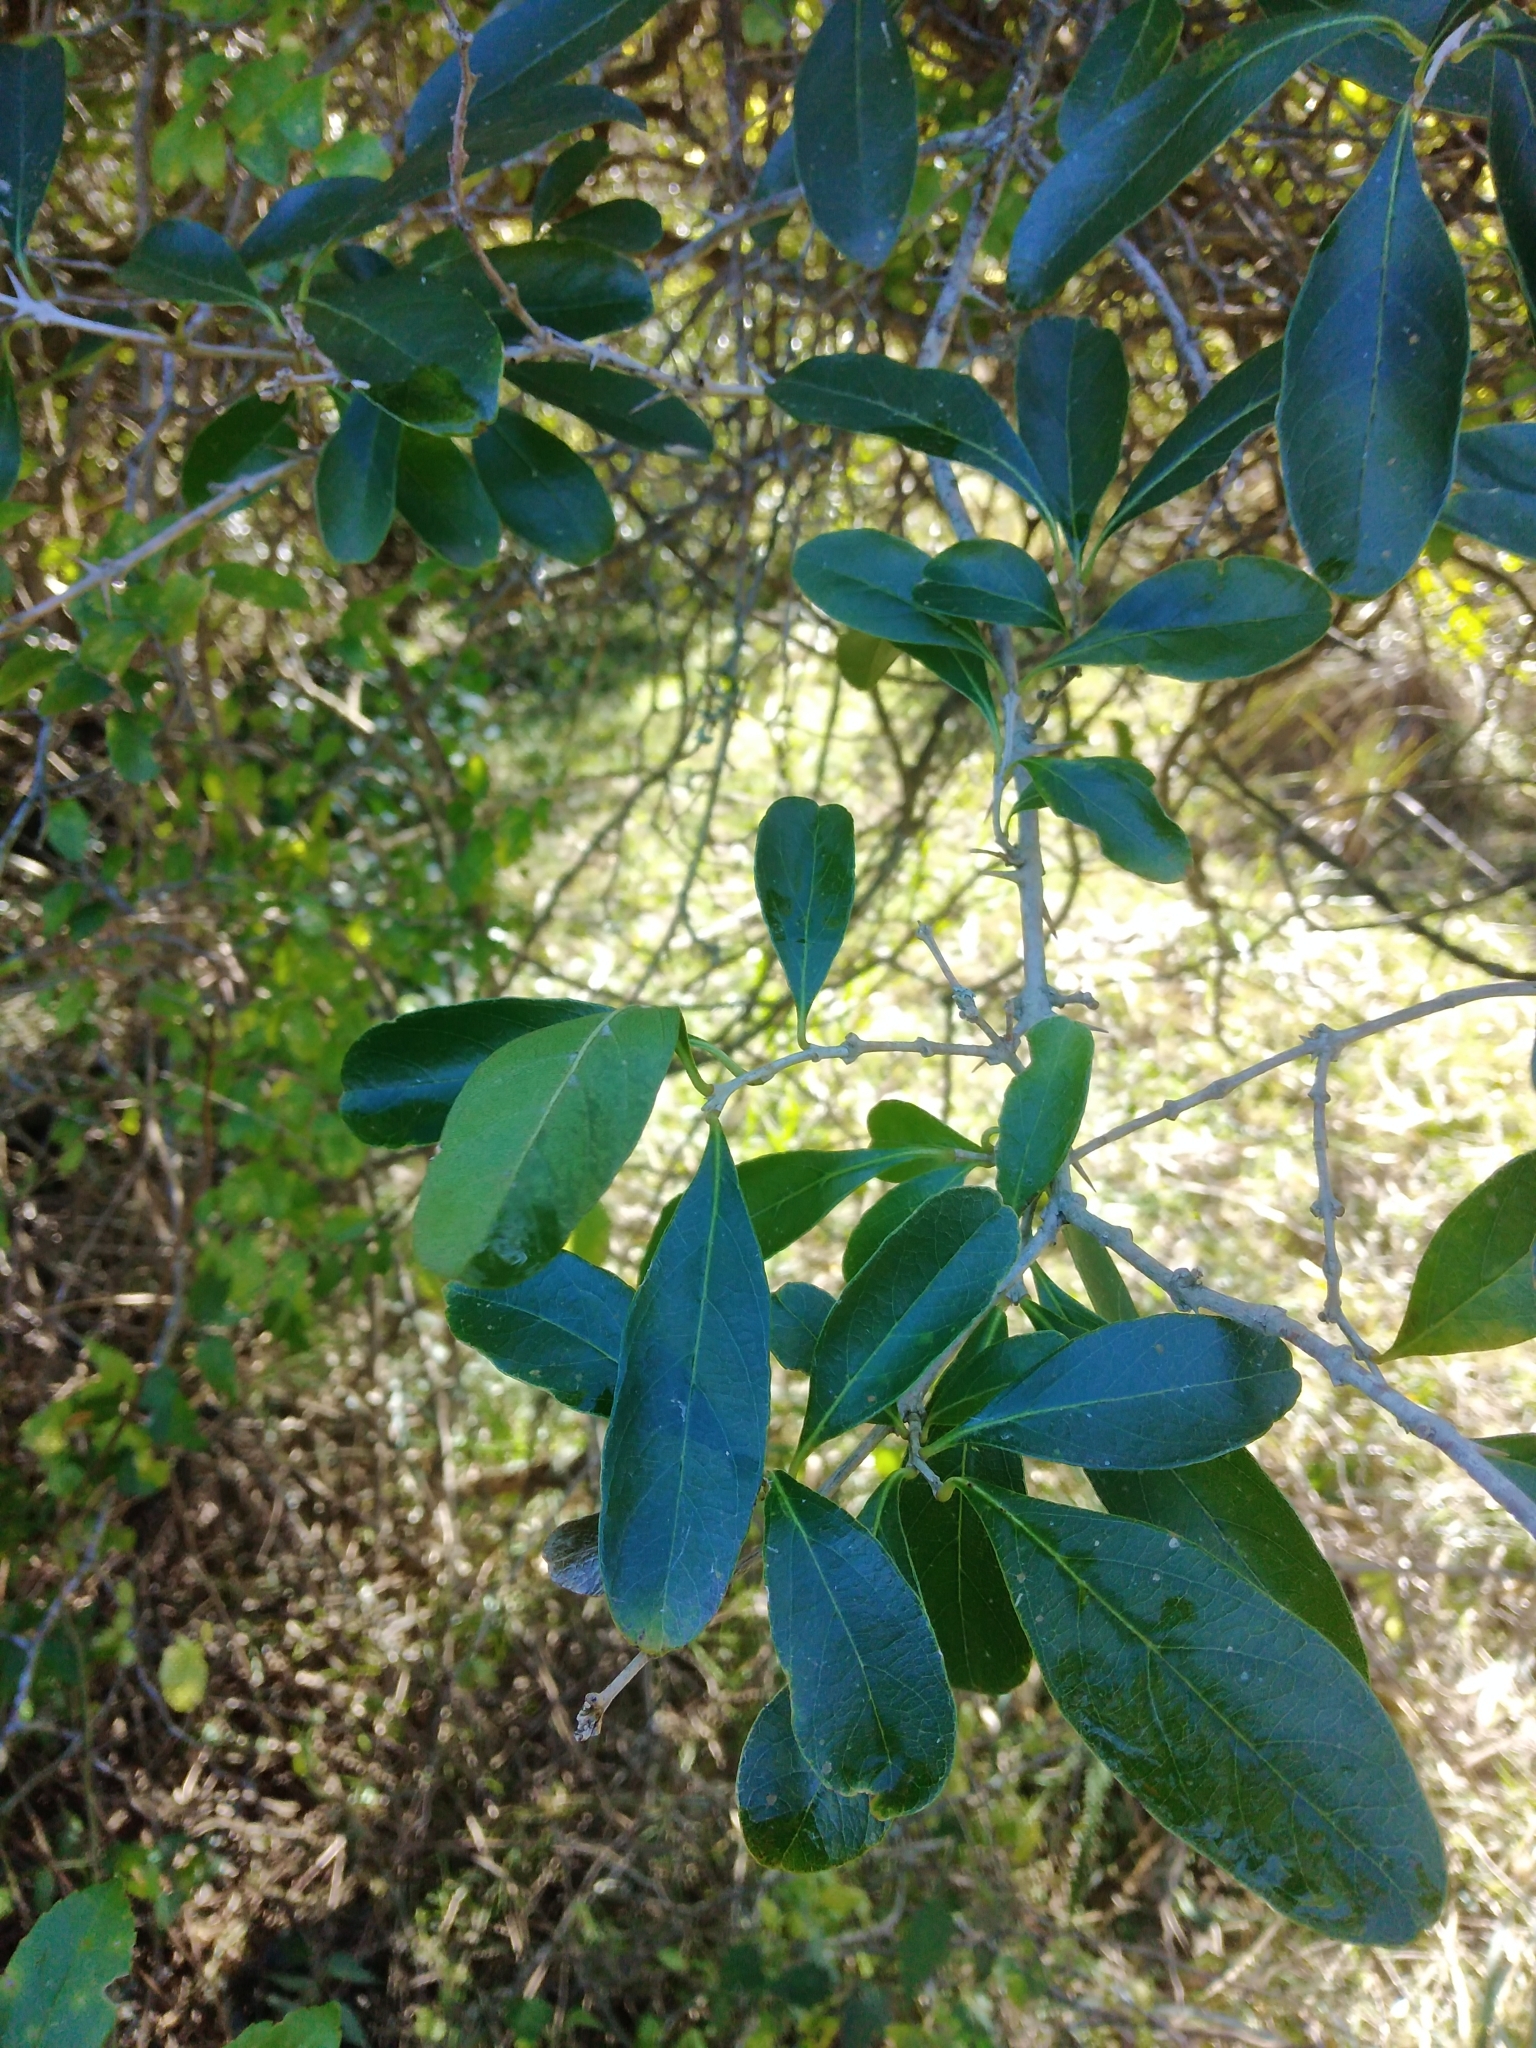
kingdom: Plantae
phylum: Tracheophyta
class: Magnoliopsida
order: Lamiales
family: Verbenaceae
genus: Citharexylum
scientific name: Citharexylum montevidense
